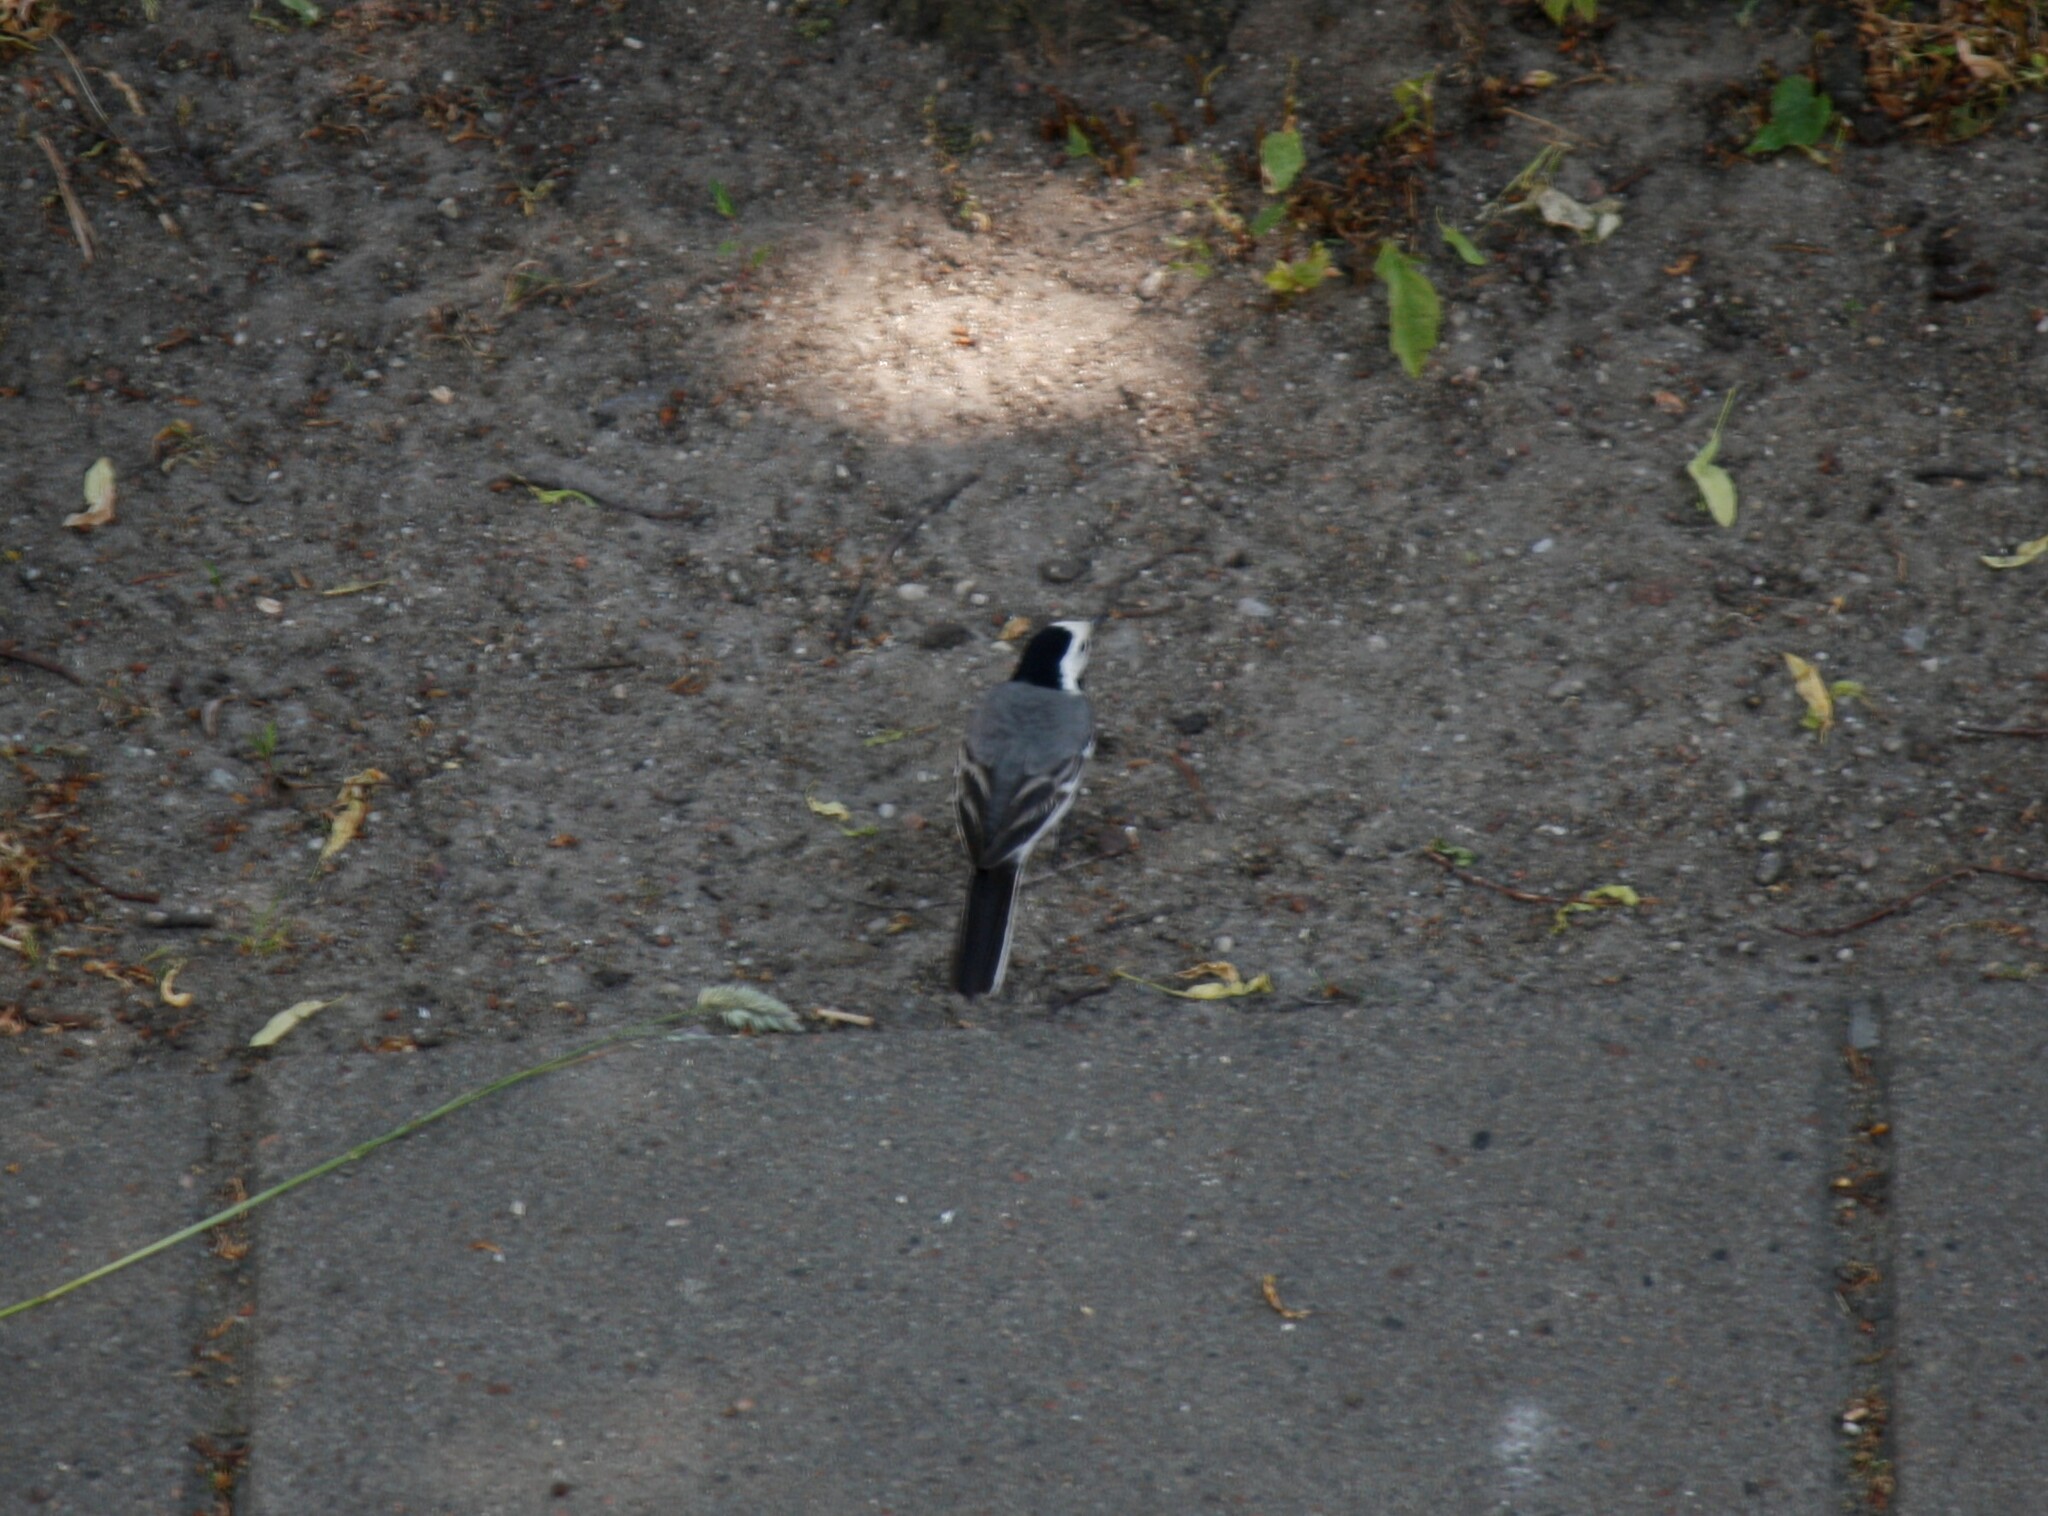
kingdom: Animalia
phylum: Chordata
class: Aves
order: Passeriformes
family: Motacillidae
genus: Motacilla
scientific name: Motacilla alba
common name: White wagtail
